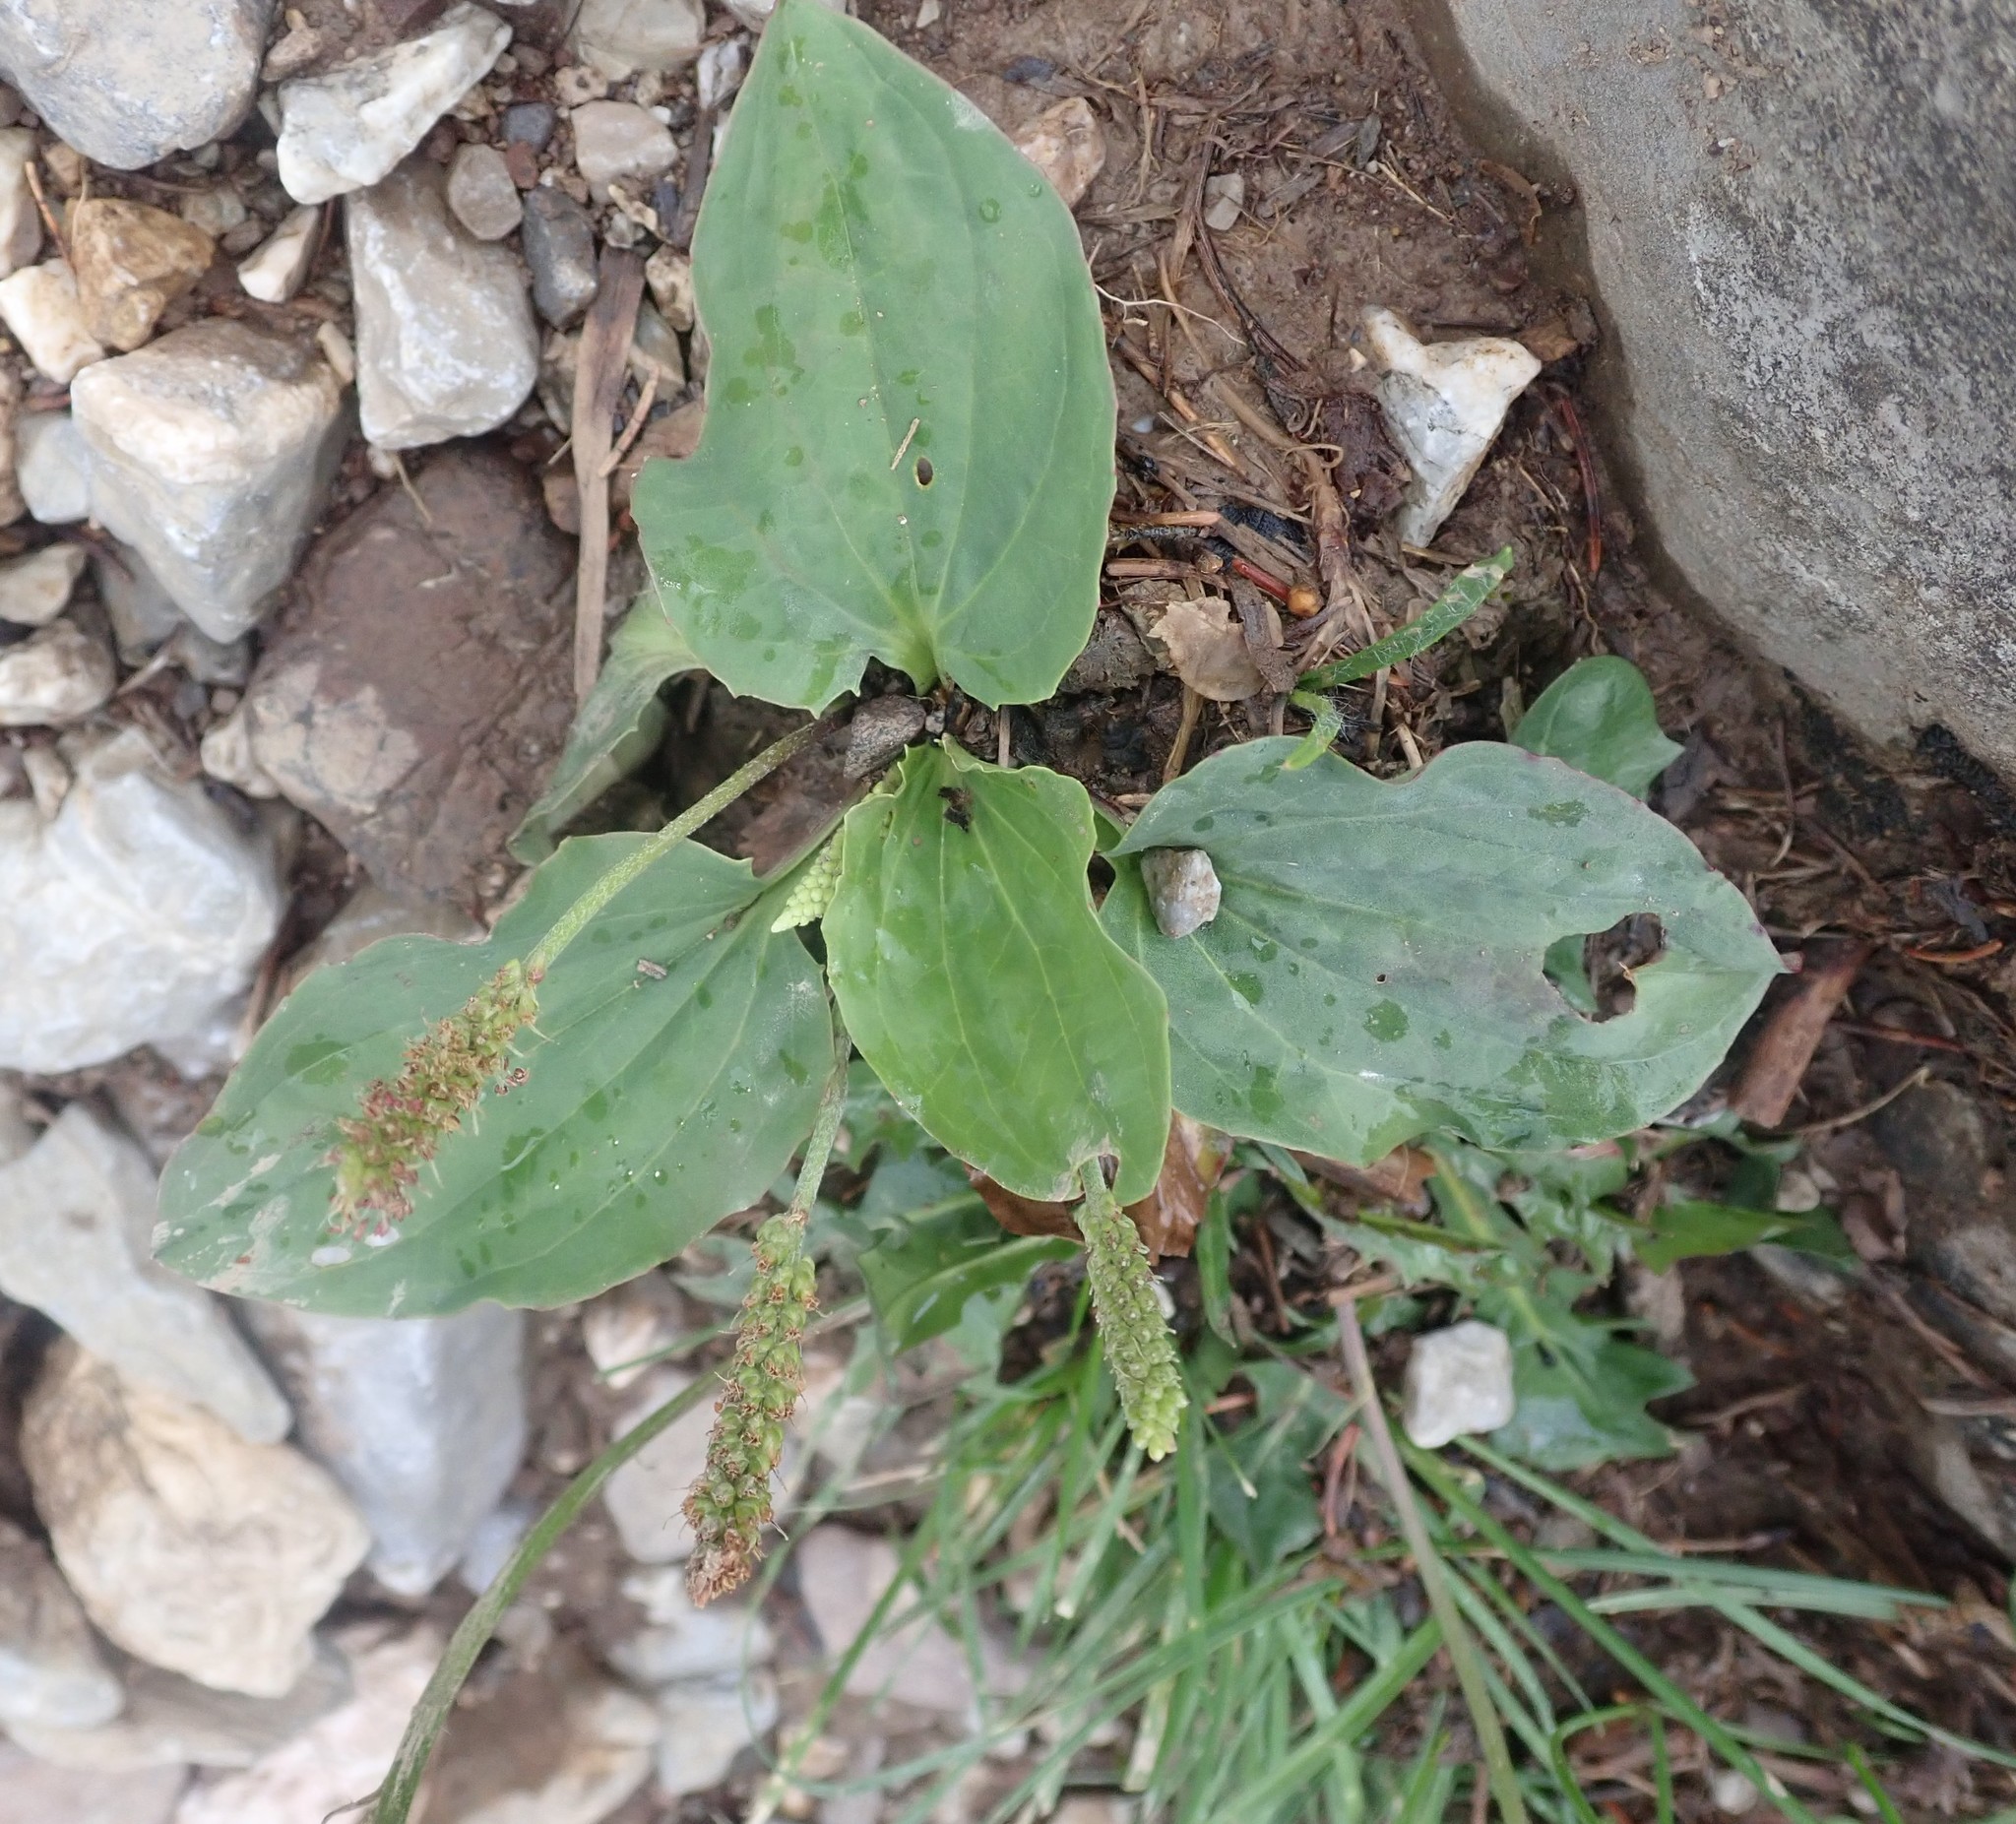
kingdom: Plantae
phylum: Tracheophyta
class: Magnoliopsida
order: Lamiales
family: Plantaginaceae
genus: Plantago
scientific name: Plantago major
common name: Common plantain
